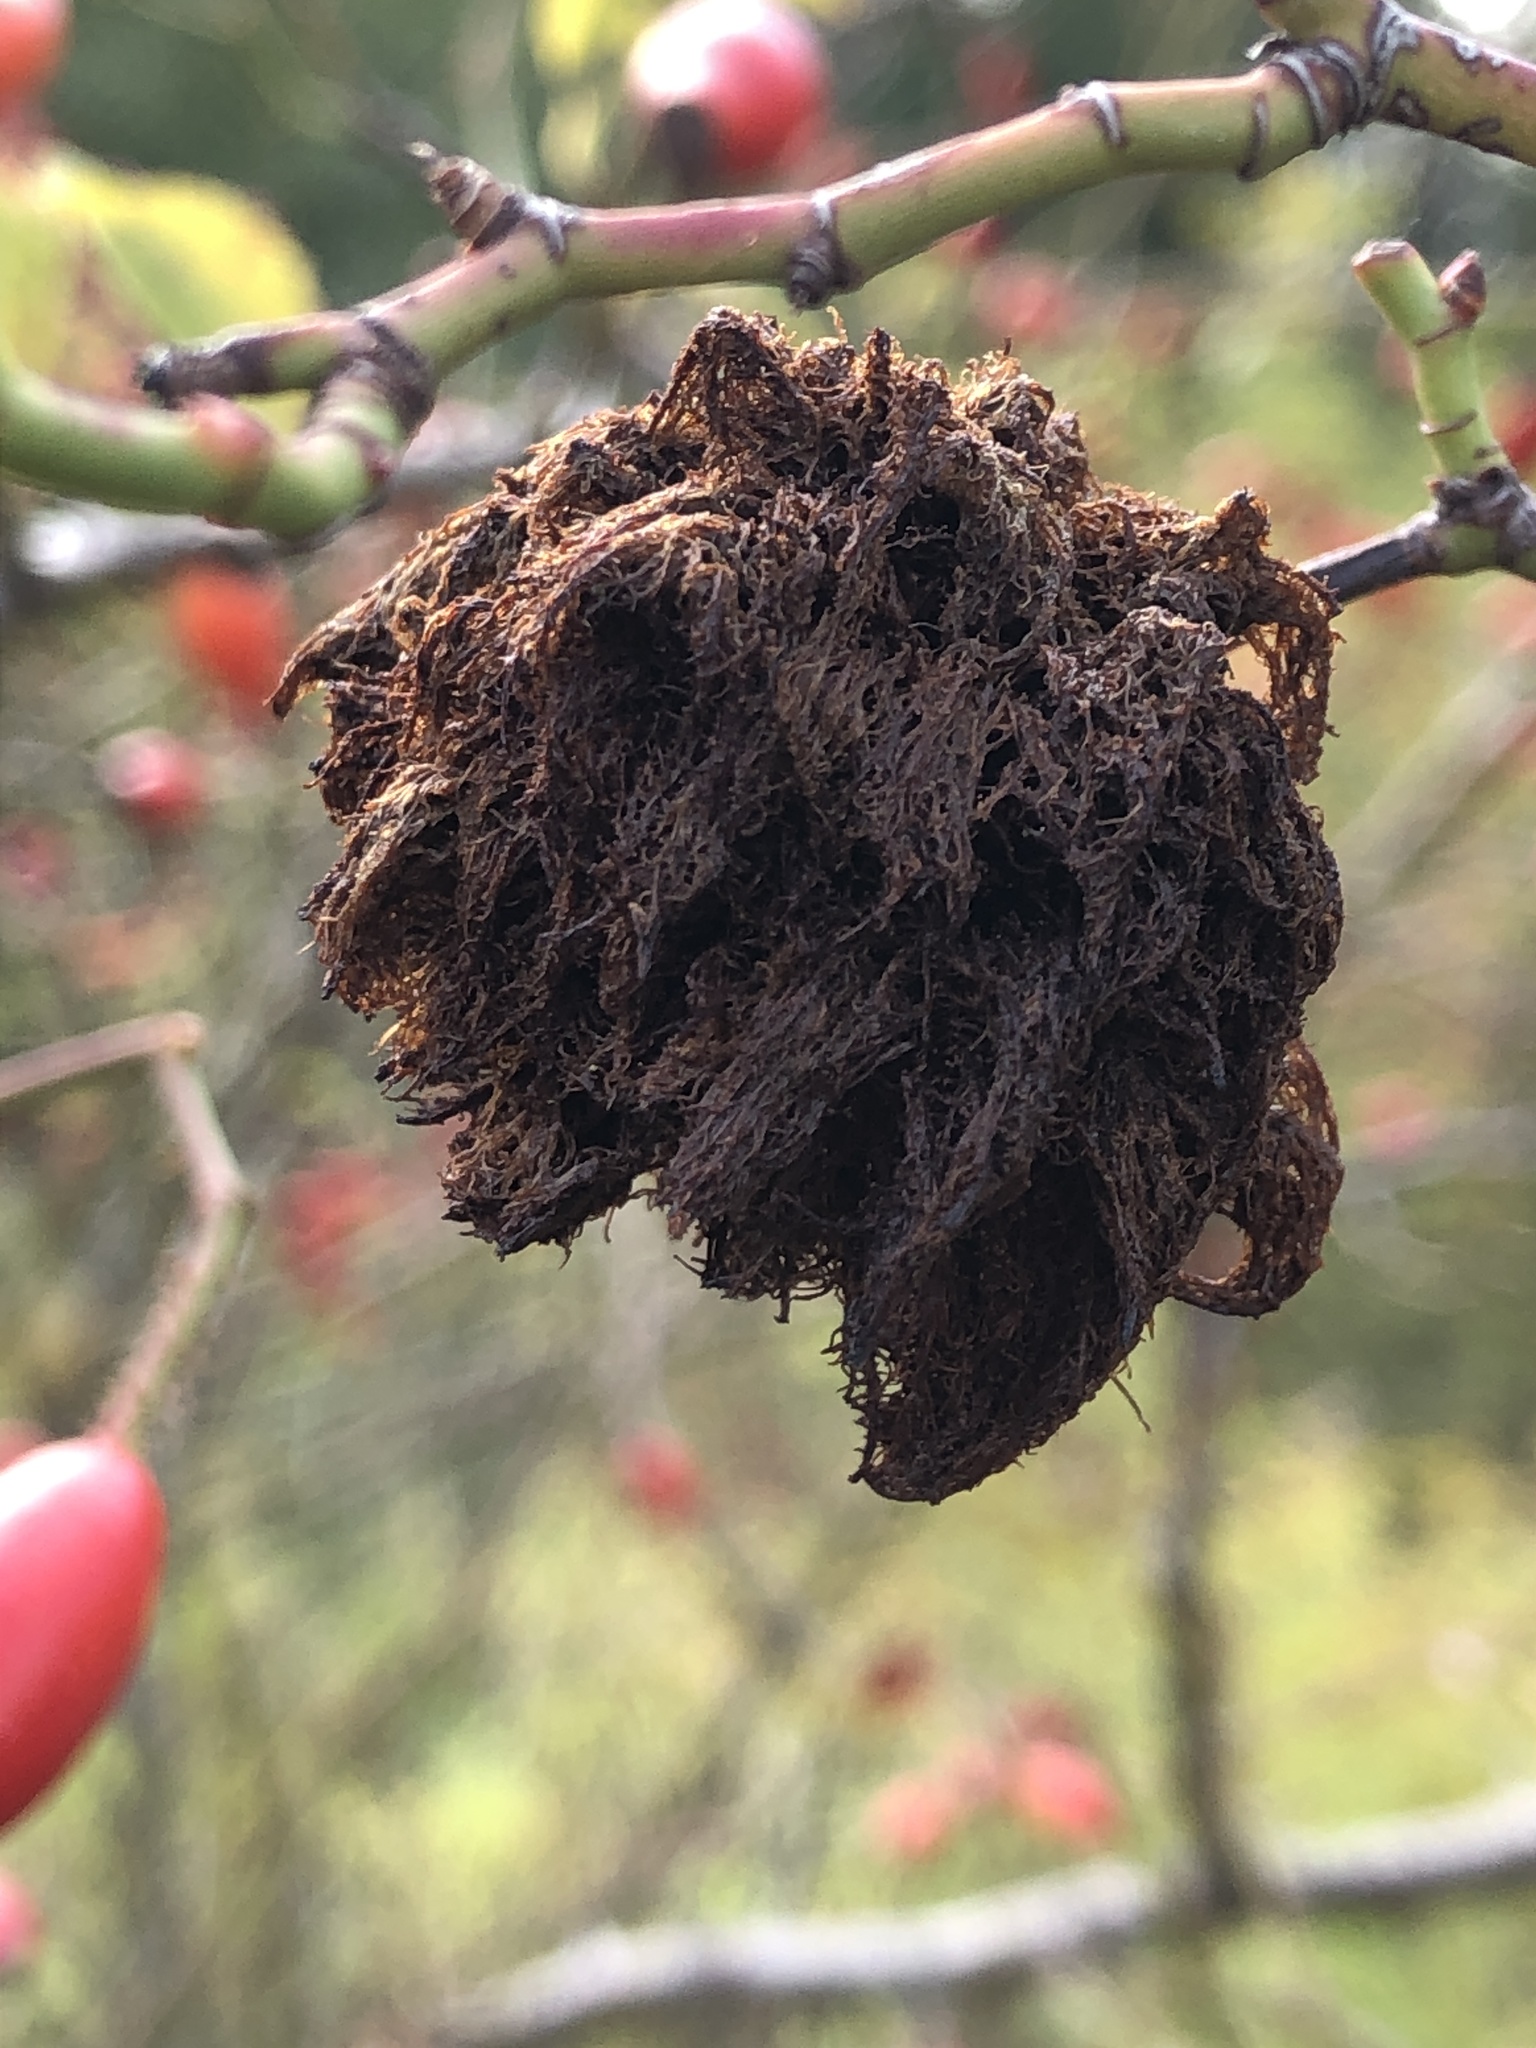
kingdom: Animalia
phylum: Arthropoda
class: Insecta
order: Hymenoptera
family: Cynipidae
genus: Diplolepis
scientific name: Diplolepis rosae
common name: Bedeguar gall
